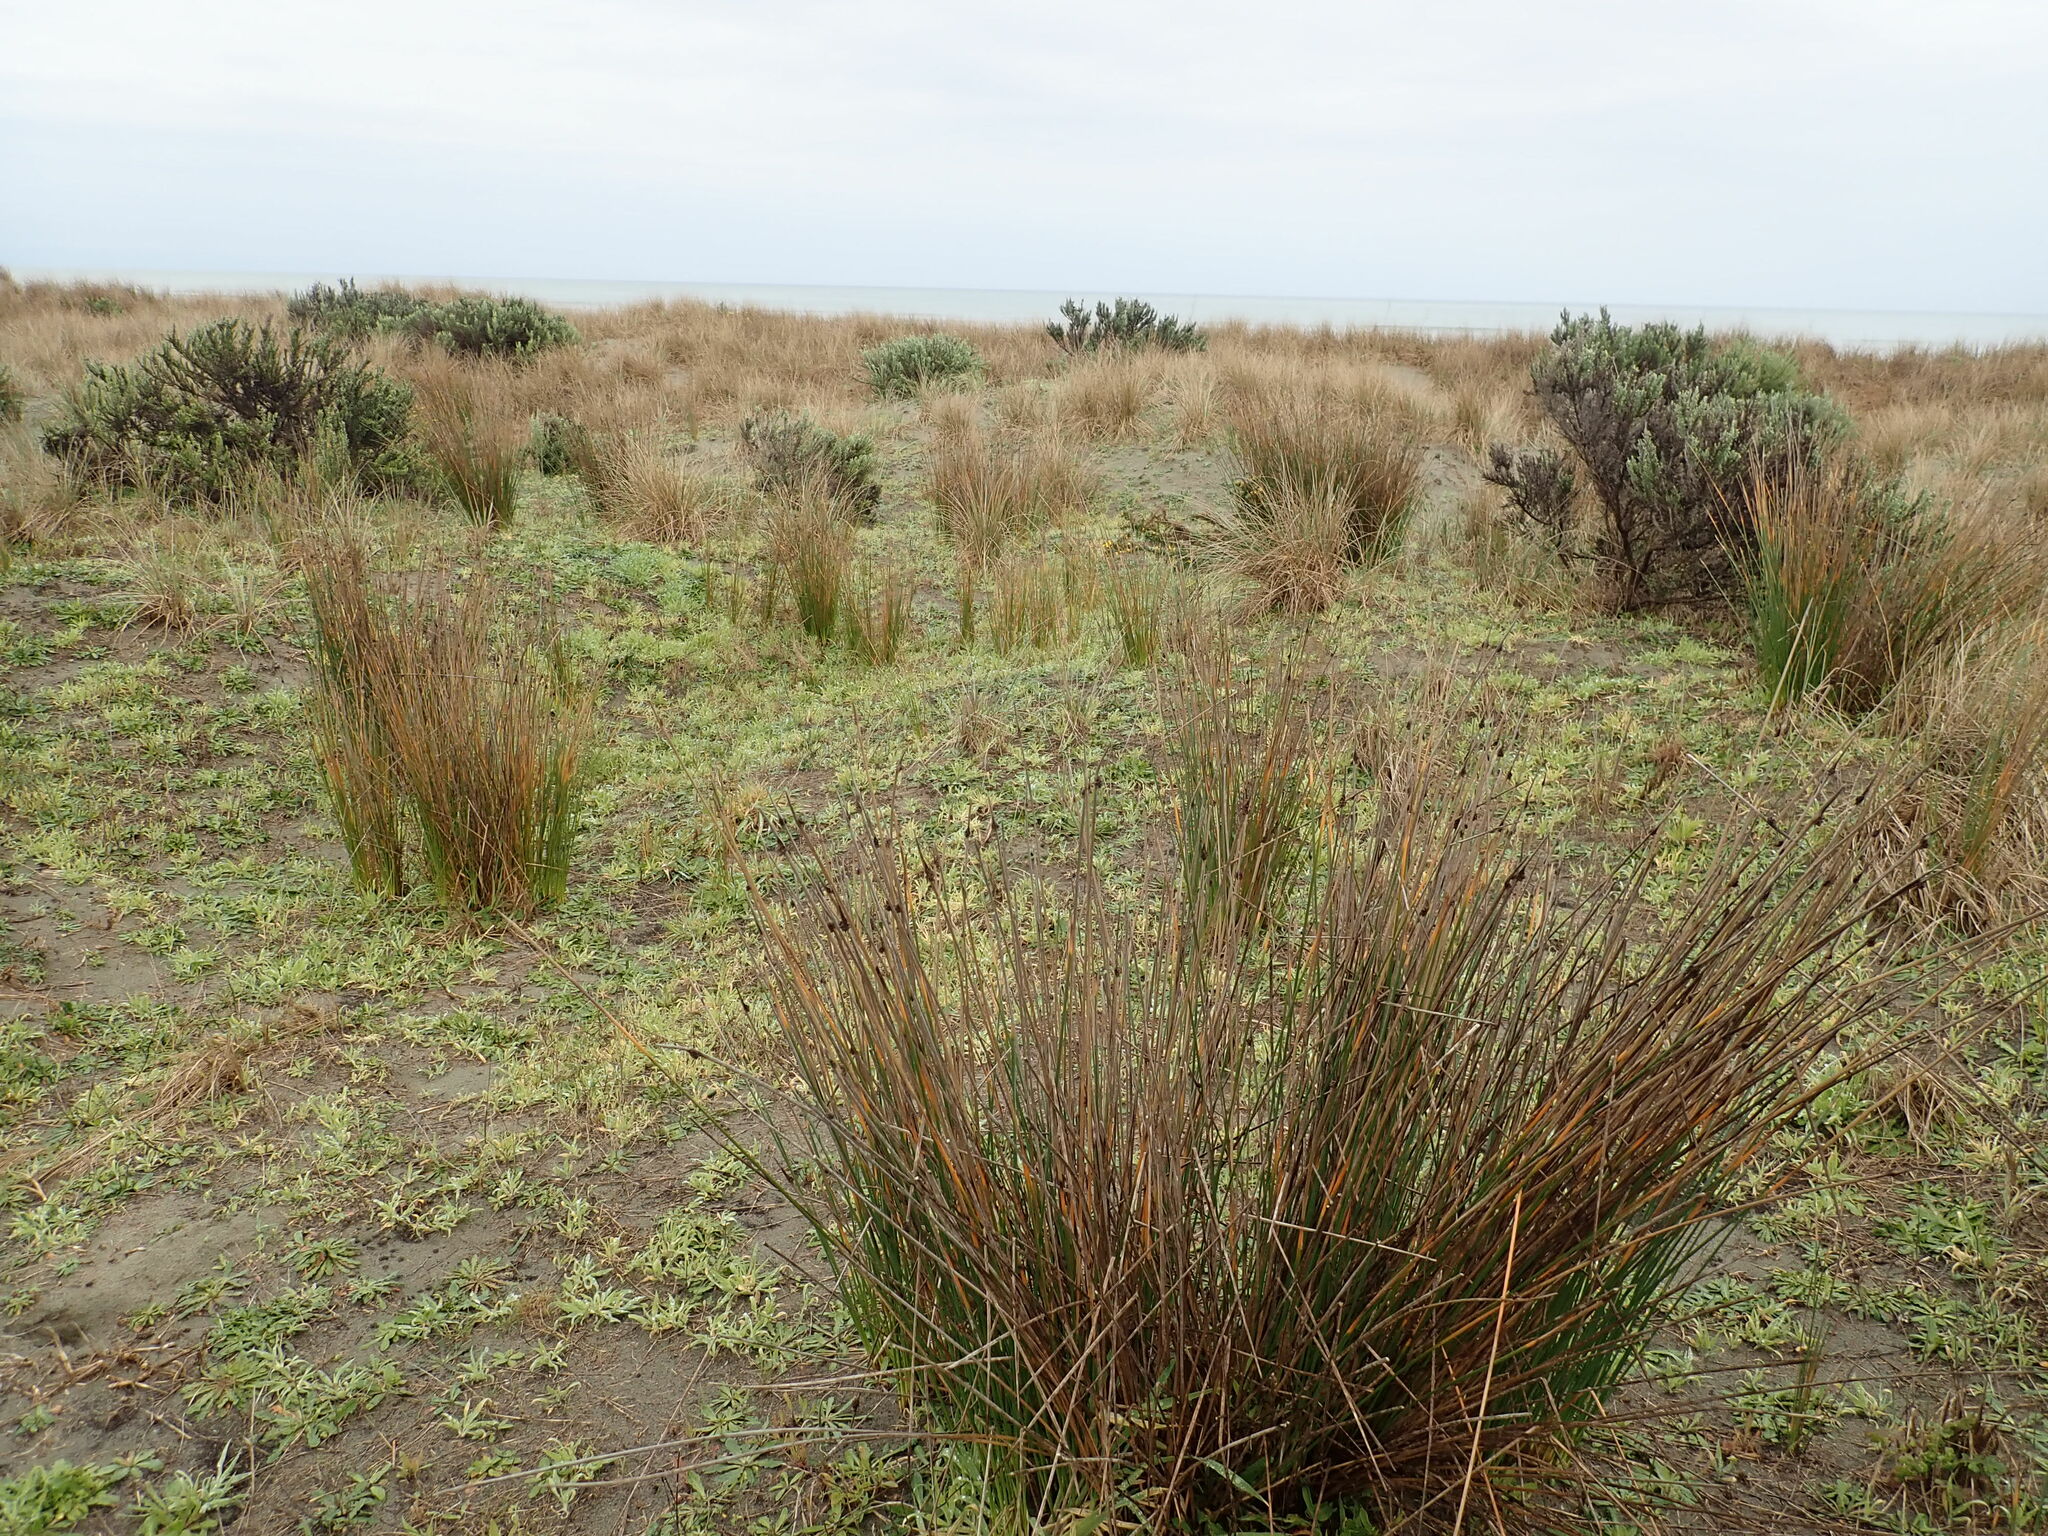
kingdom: Plantae
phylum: Tracheophyta
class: Liliopsida
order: Poales
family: Cyperaceae
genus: Ficinia
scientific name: Ficinia nodosa
